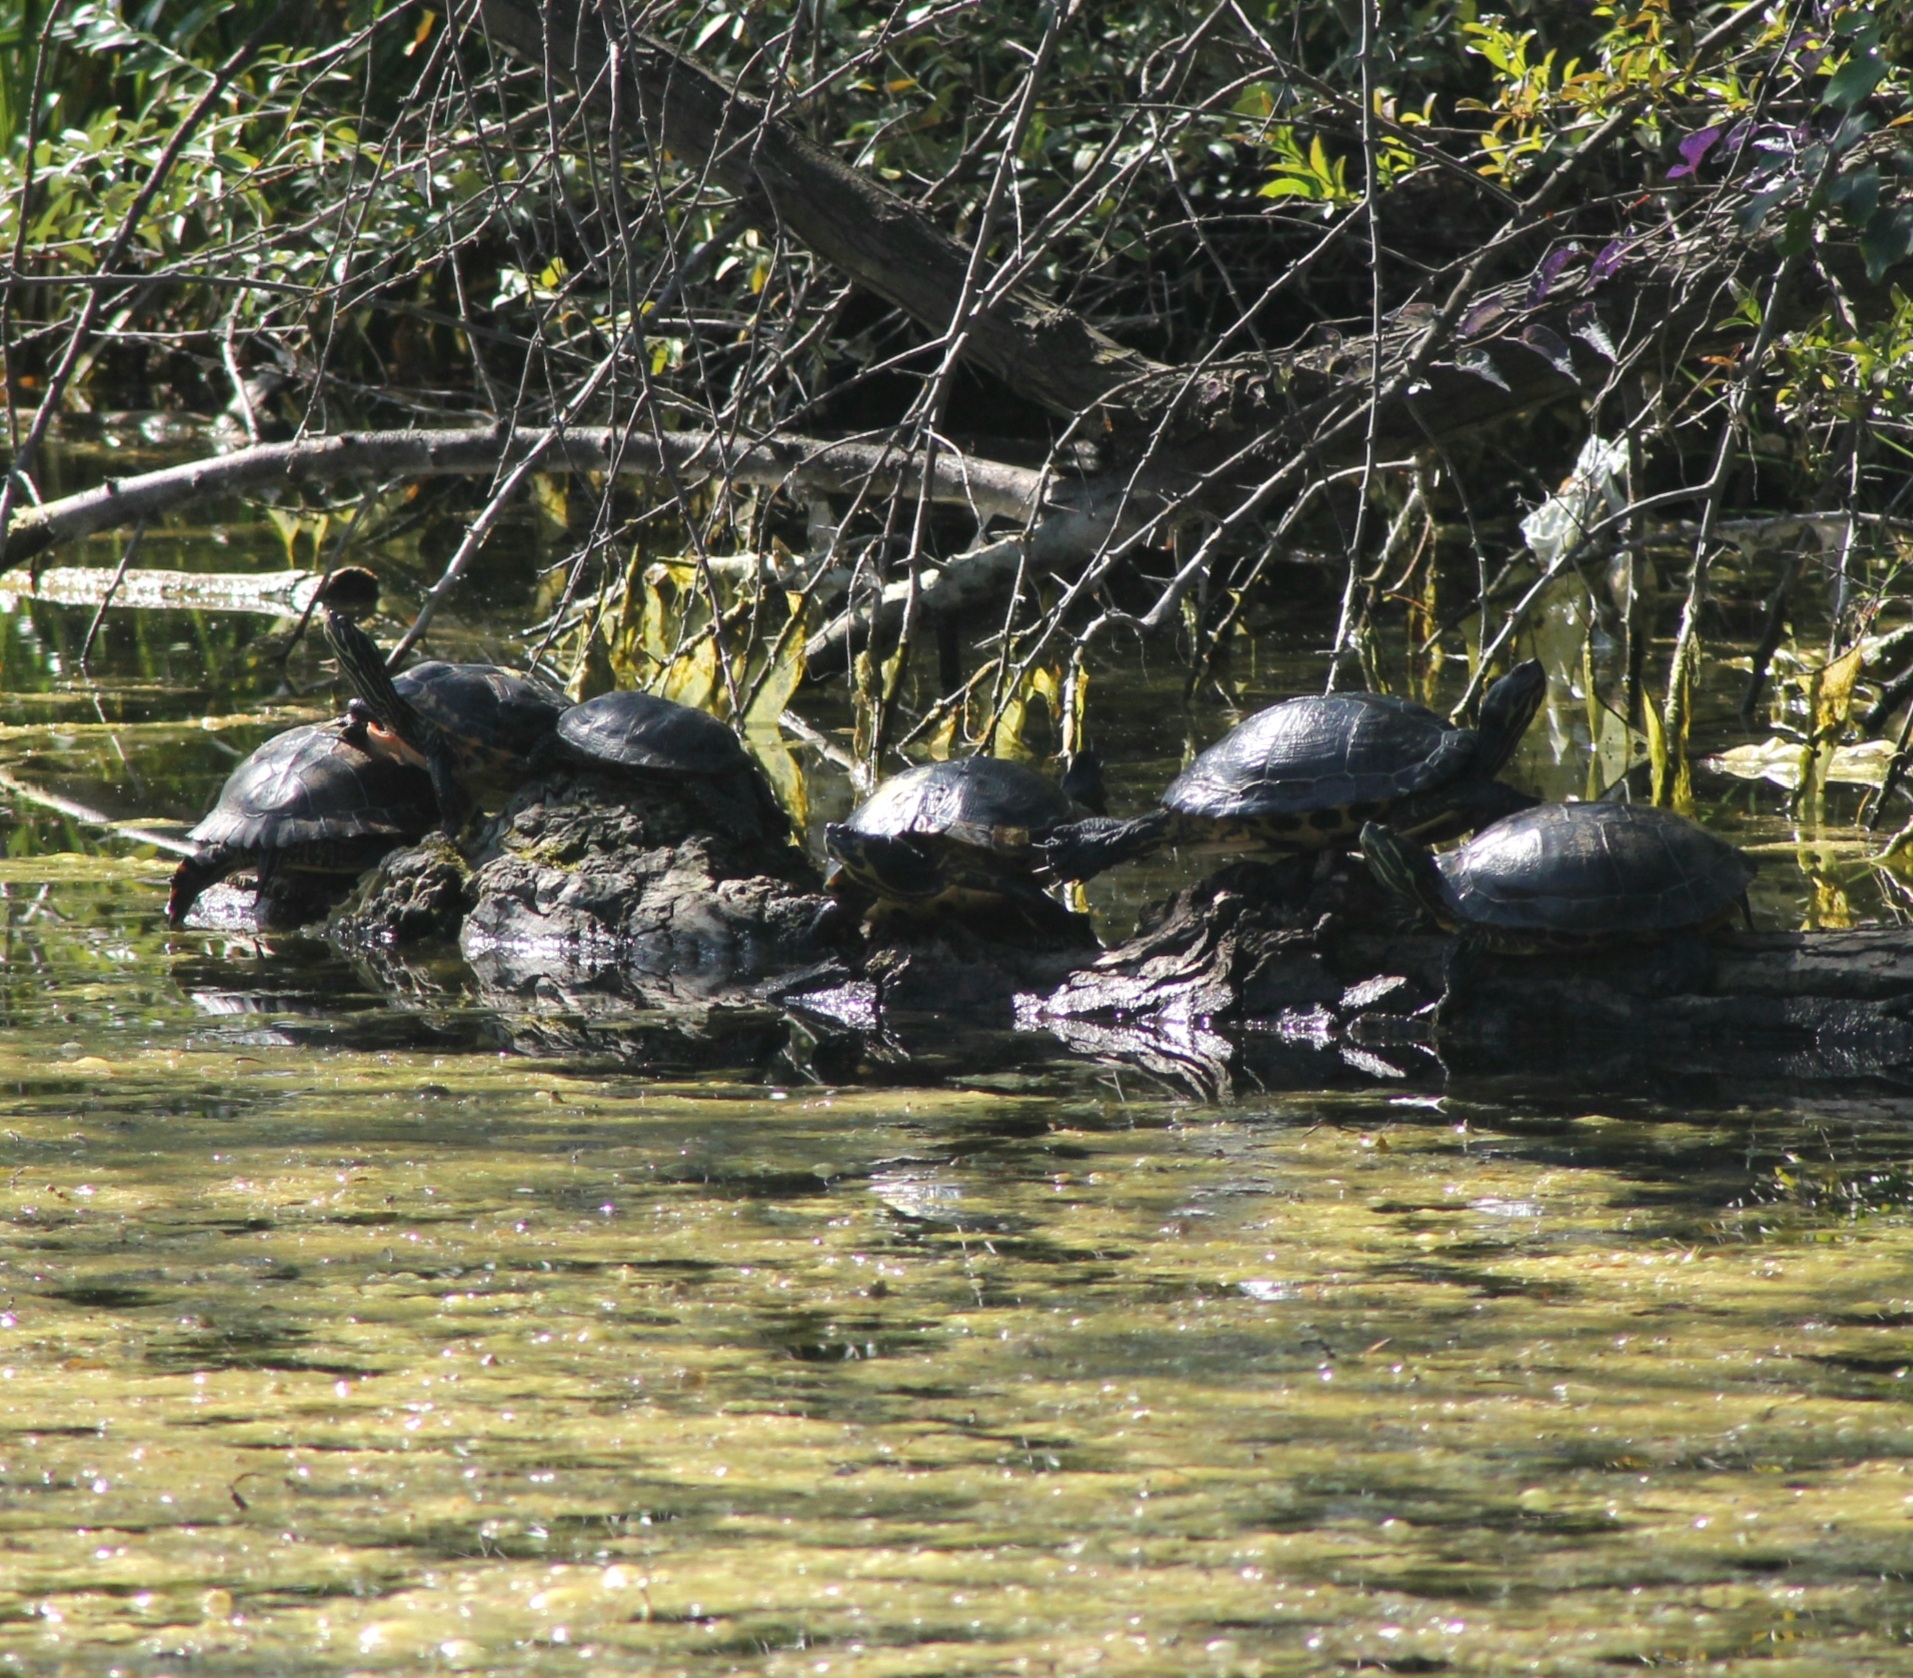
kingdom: Animalia
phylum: Chordata
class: Testudines
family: Emydidae
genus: Trachemys
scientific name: Trachemys scripta
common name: Slider
